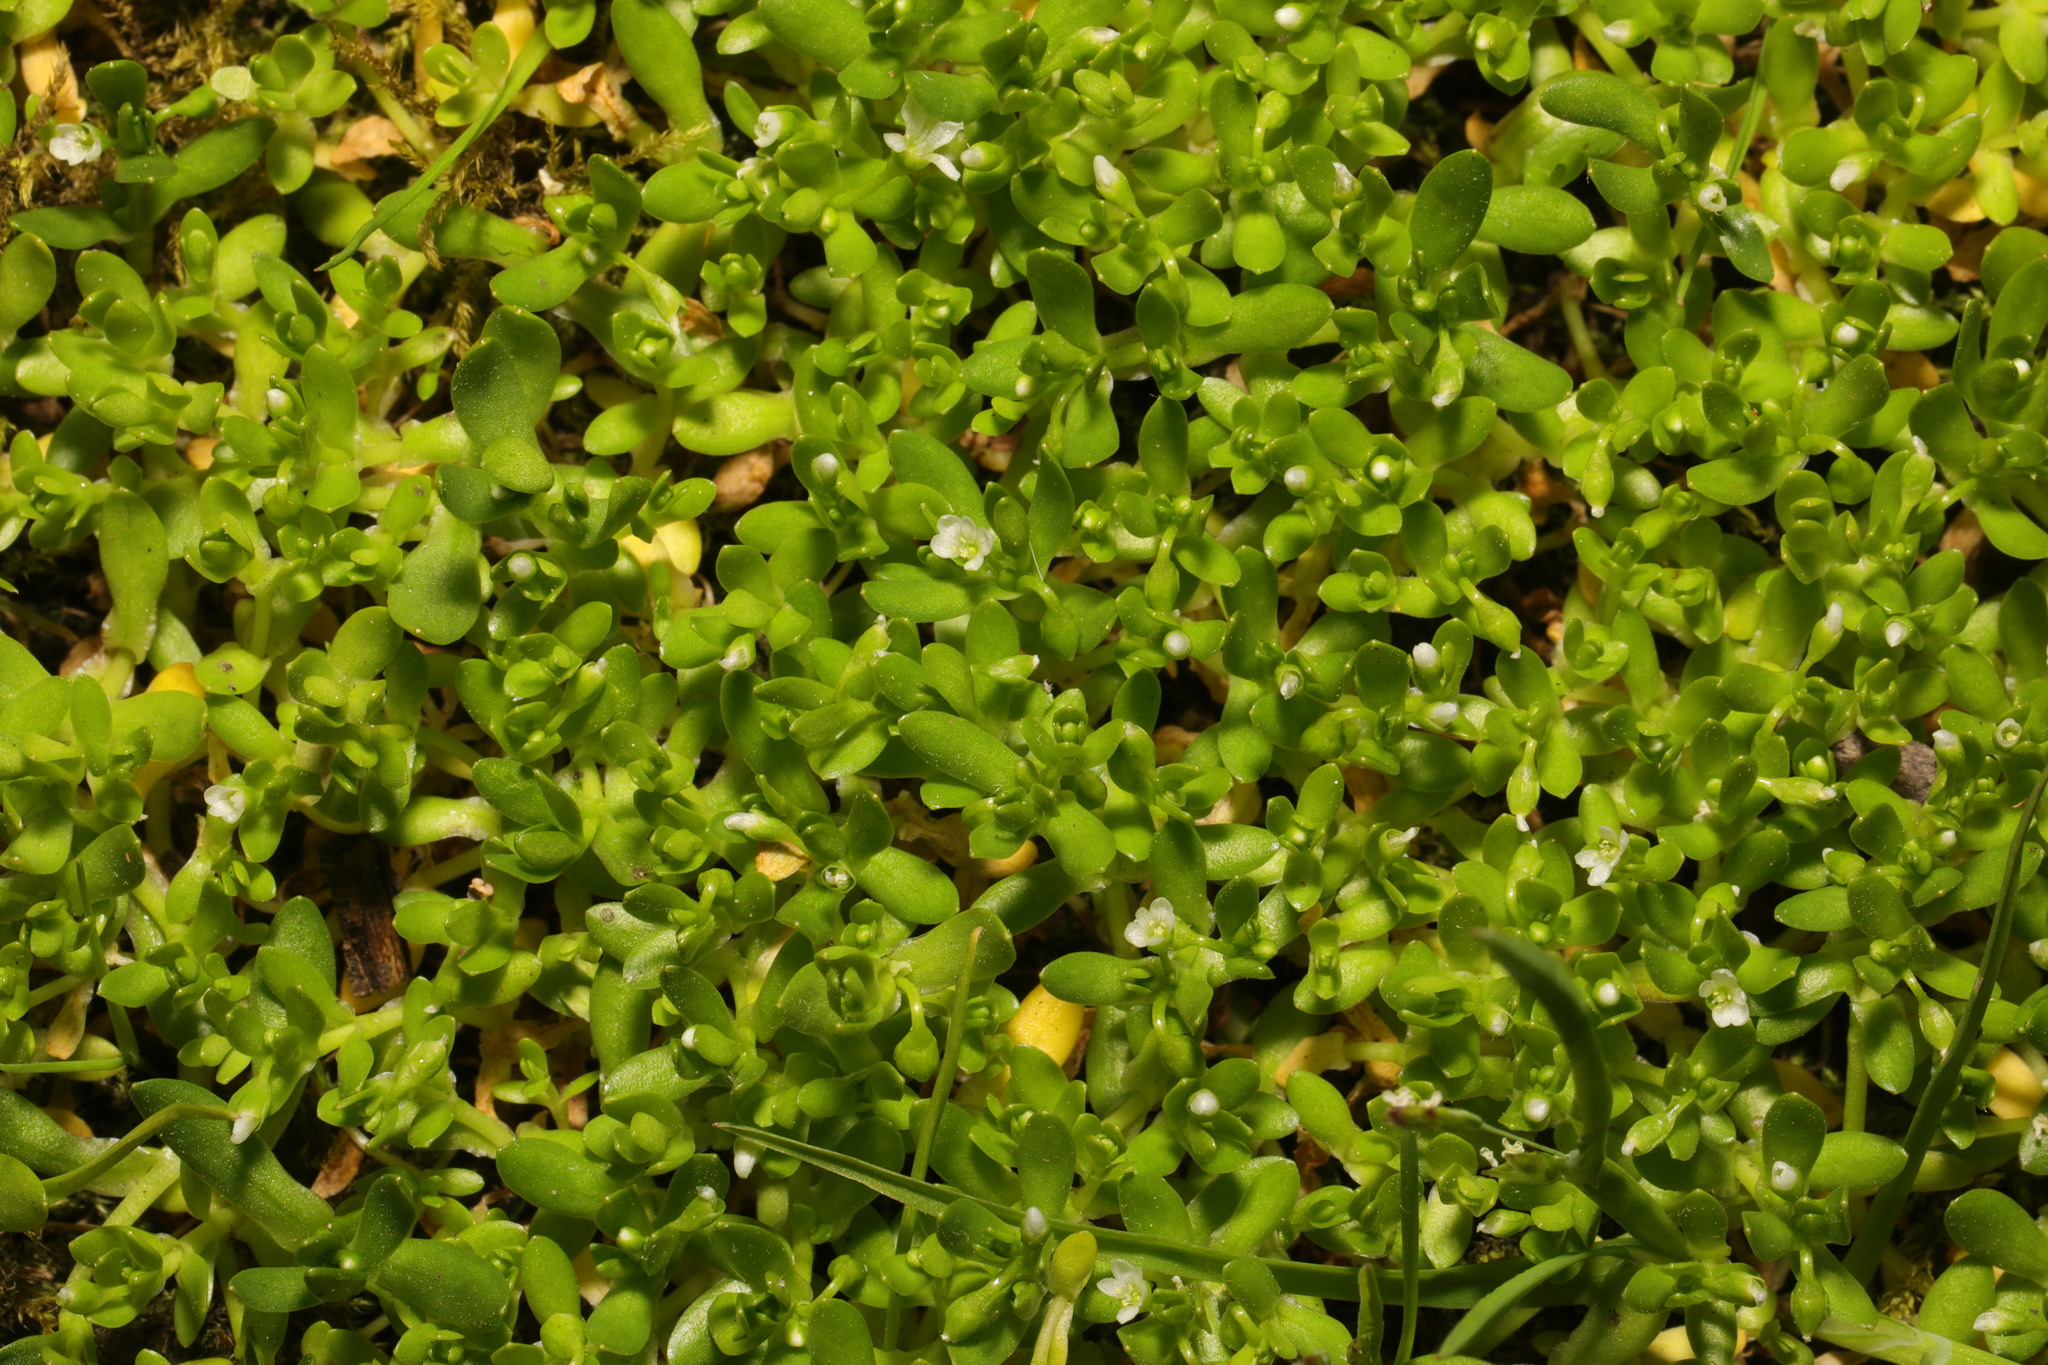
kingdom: Plantae
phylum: Tracheophyta
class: Magnoliopsida
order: Caryophyllales
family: Montiaceae
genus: Montia
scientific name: Montia fontana
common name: Blinks
